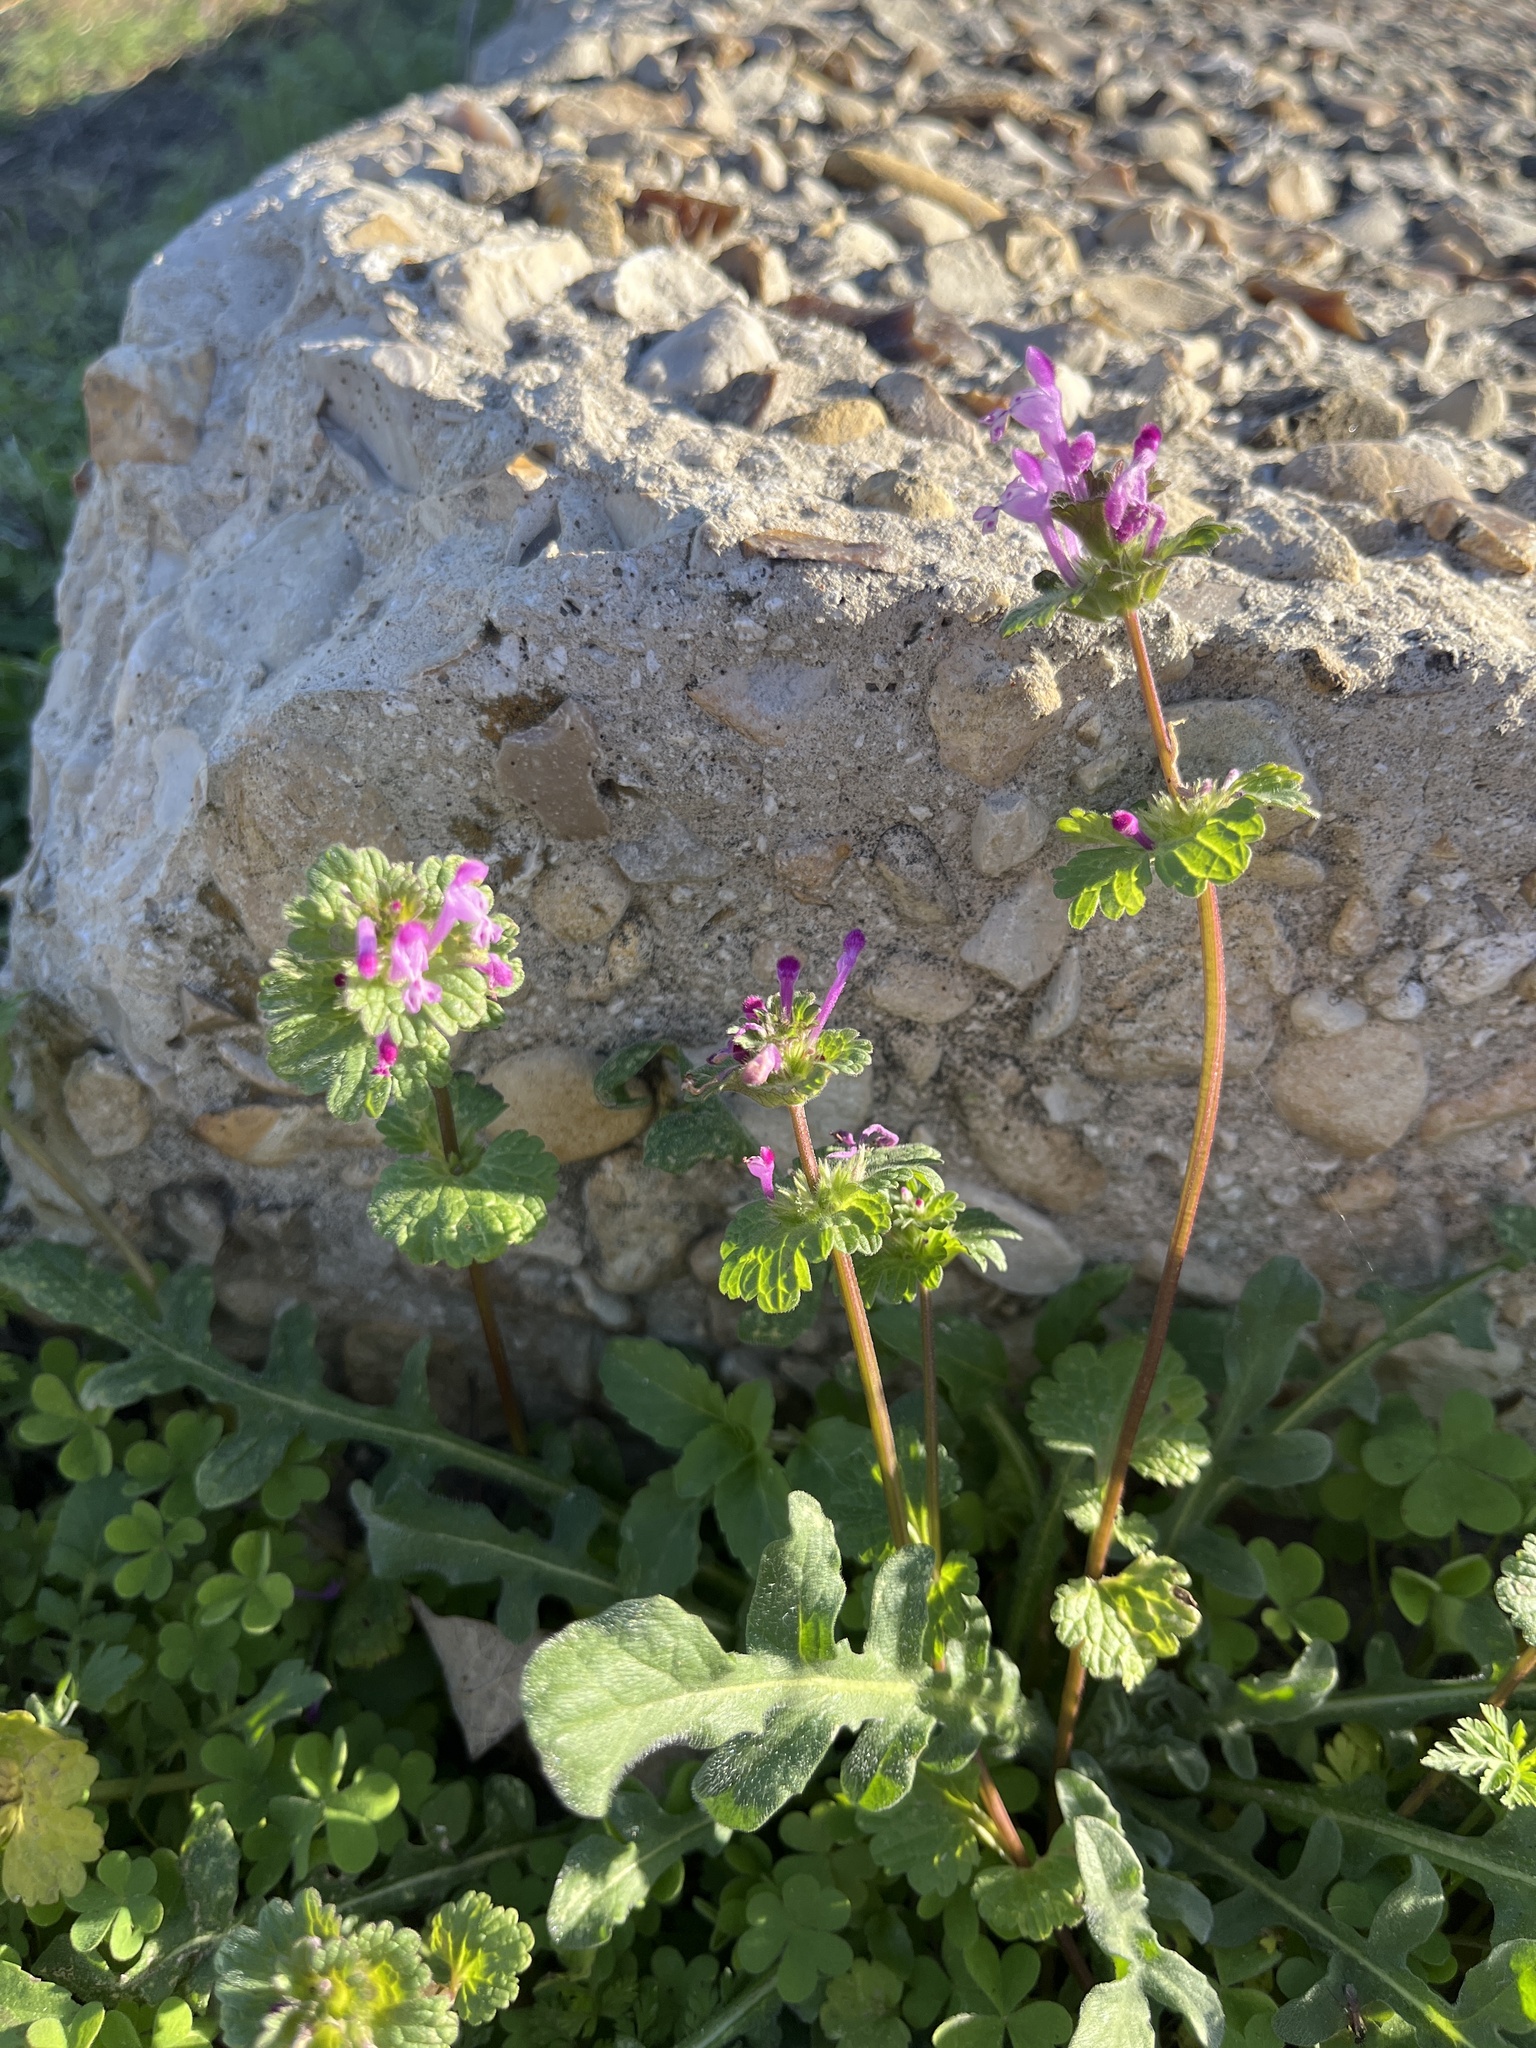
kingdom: Plantae
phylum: Tracheophyta
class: Magnoliopsida
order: Lamiales
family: Lamiaceae
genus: Lamium
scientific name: Lamium amplexicaule
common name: Henbit dead-nettle
